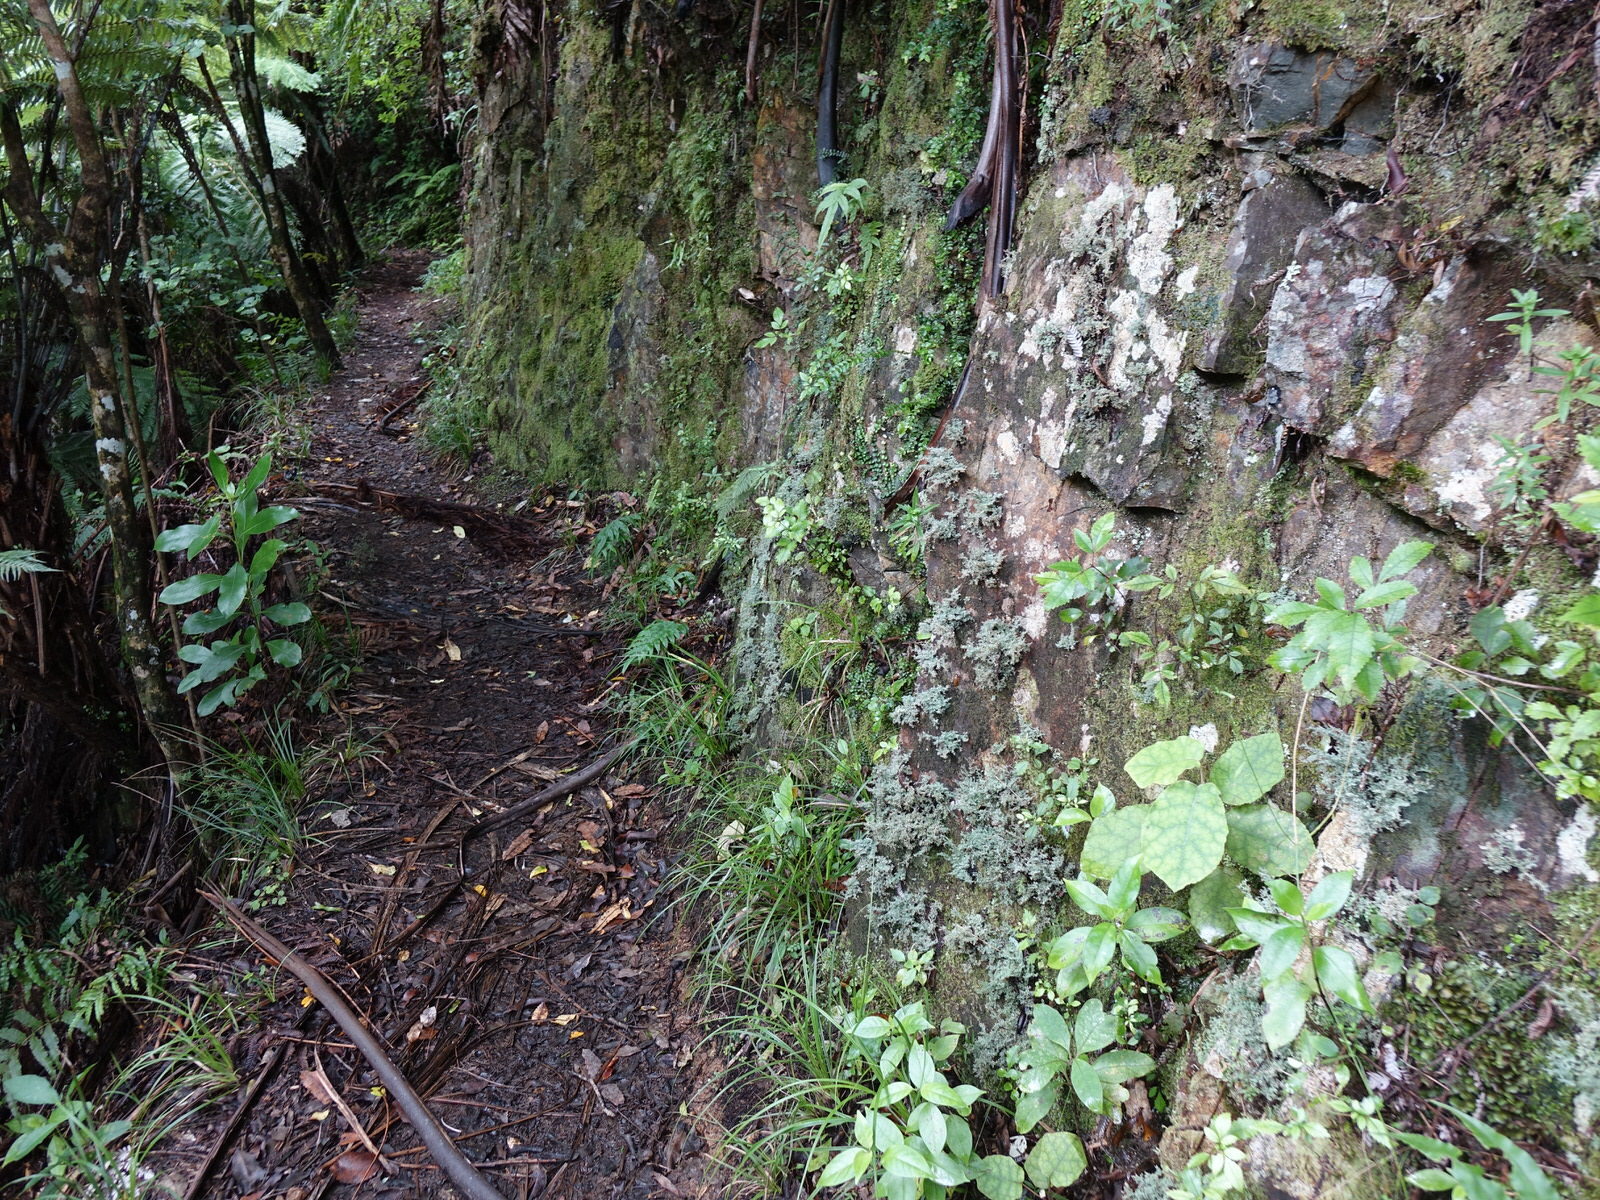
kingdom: Fungi
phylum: Ascomycota
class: Lecanoromycetes
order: Lecanorales
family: Stereocaulaceae
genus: Stereocaulon
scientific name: Stereocaulon ramulosum
